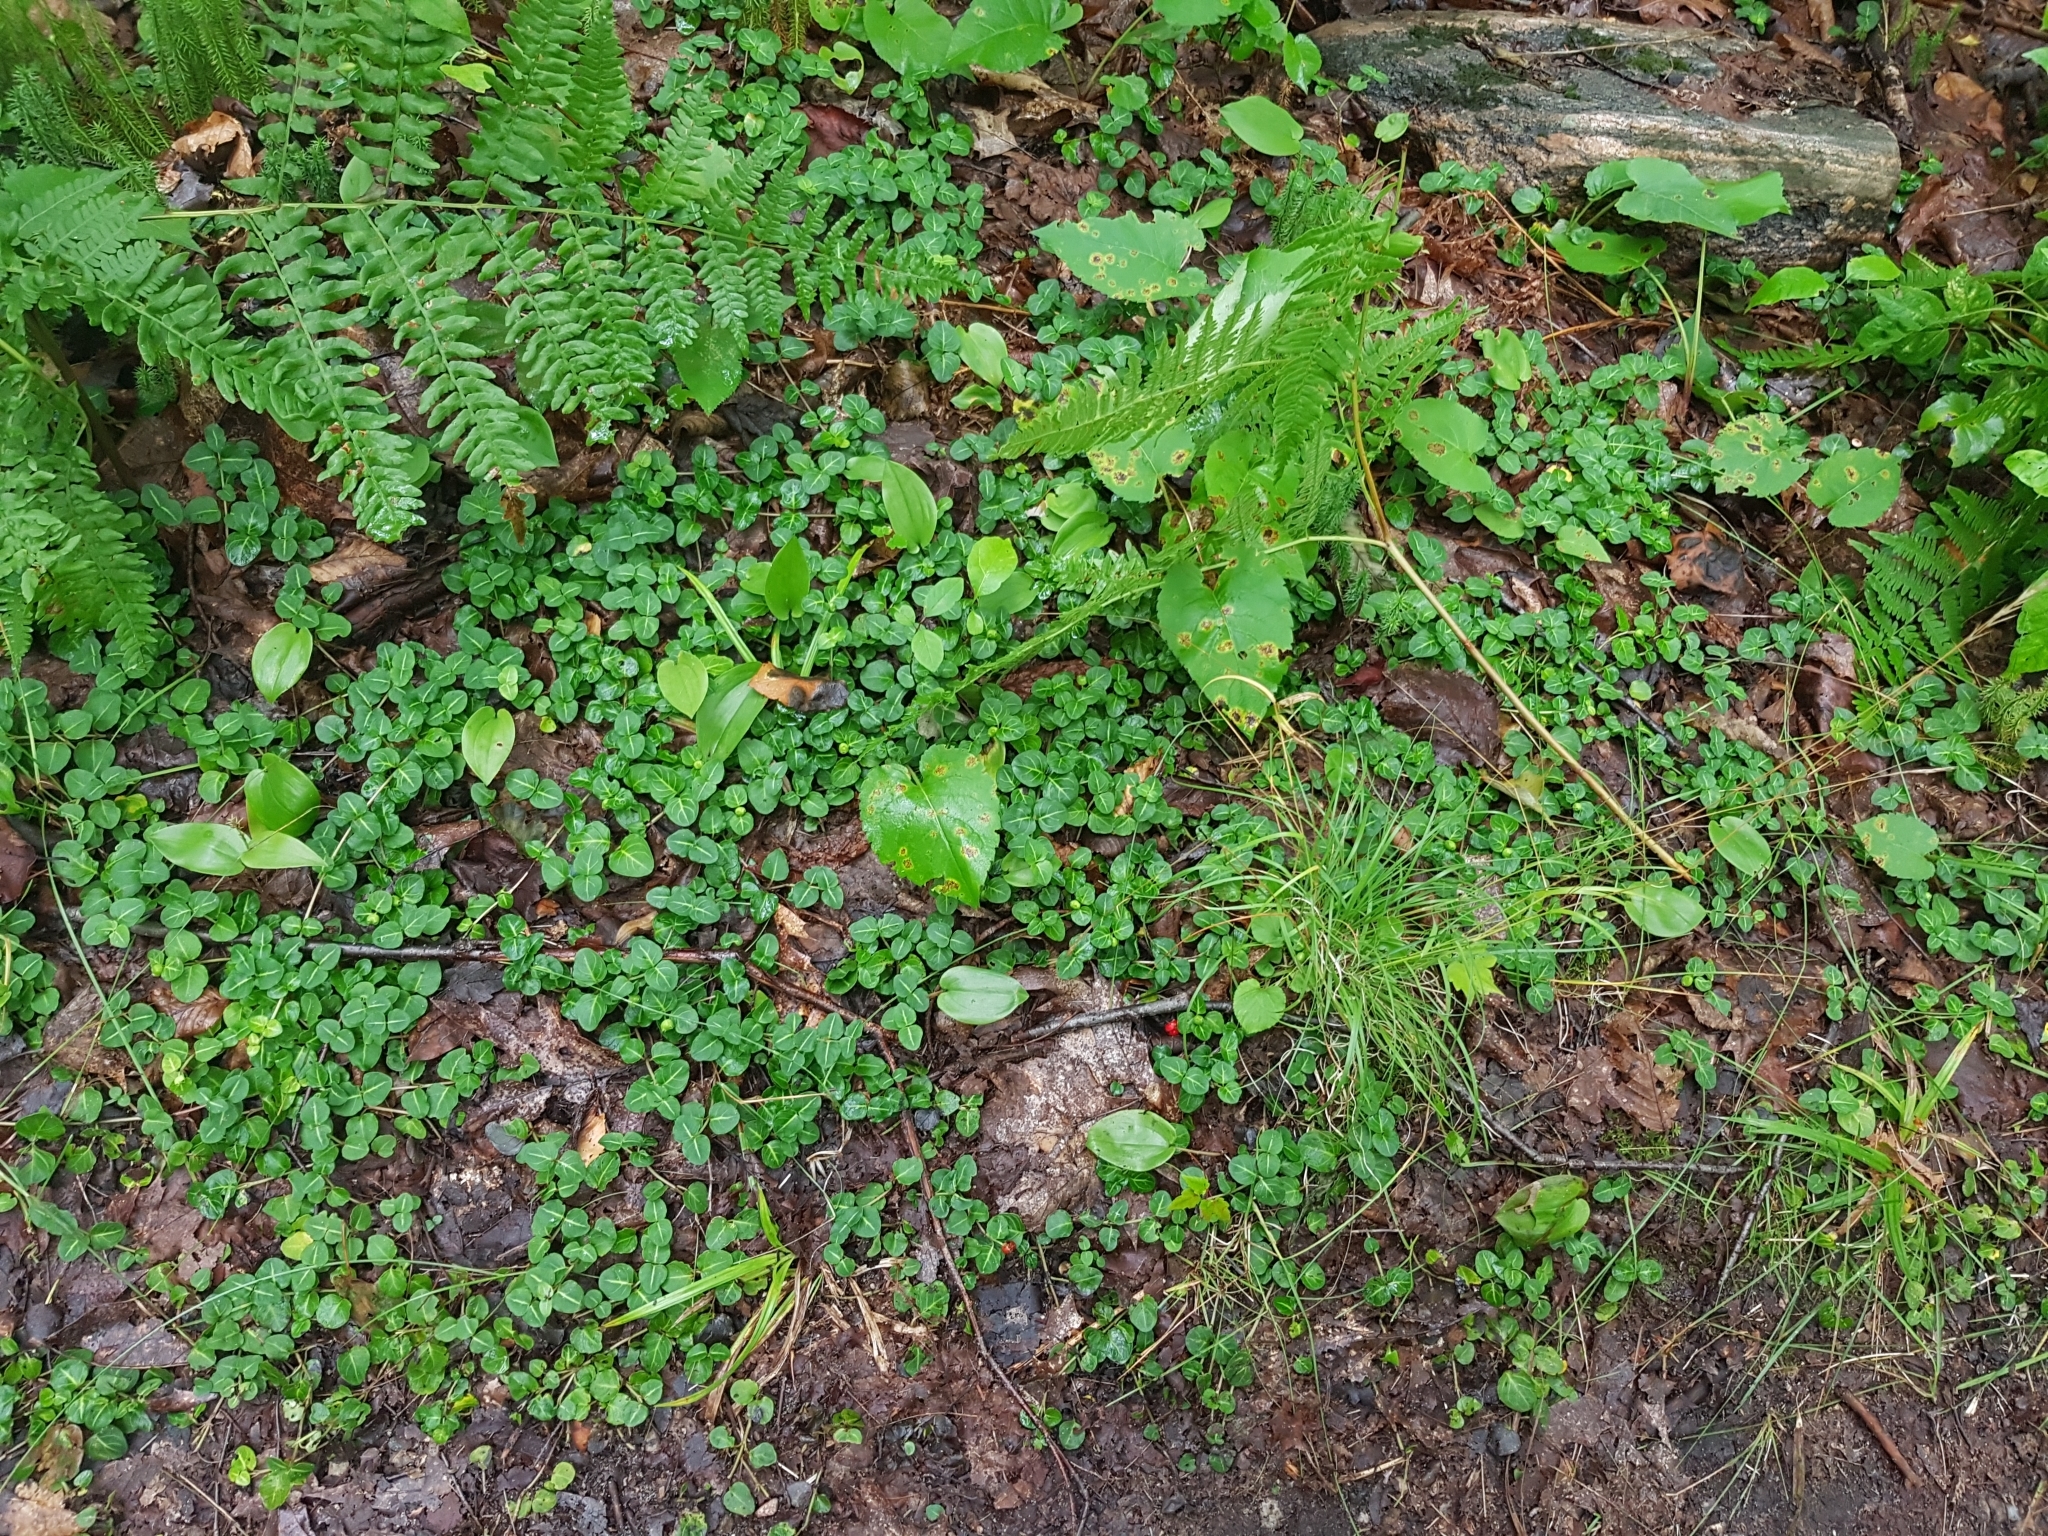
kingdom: Plantae
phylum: Tracheophyta
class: Magnoliopsida
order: Gentianales
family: Rubiaceae
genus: Mitchella
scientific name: Mitchella repens
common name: Partridge-berry
